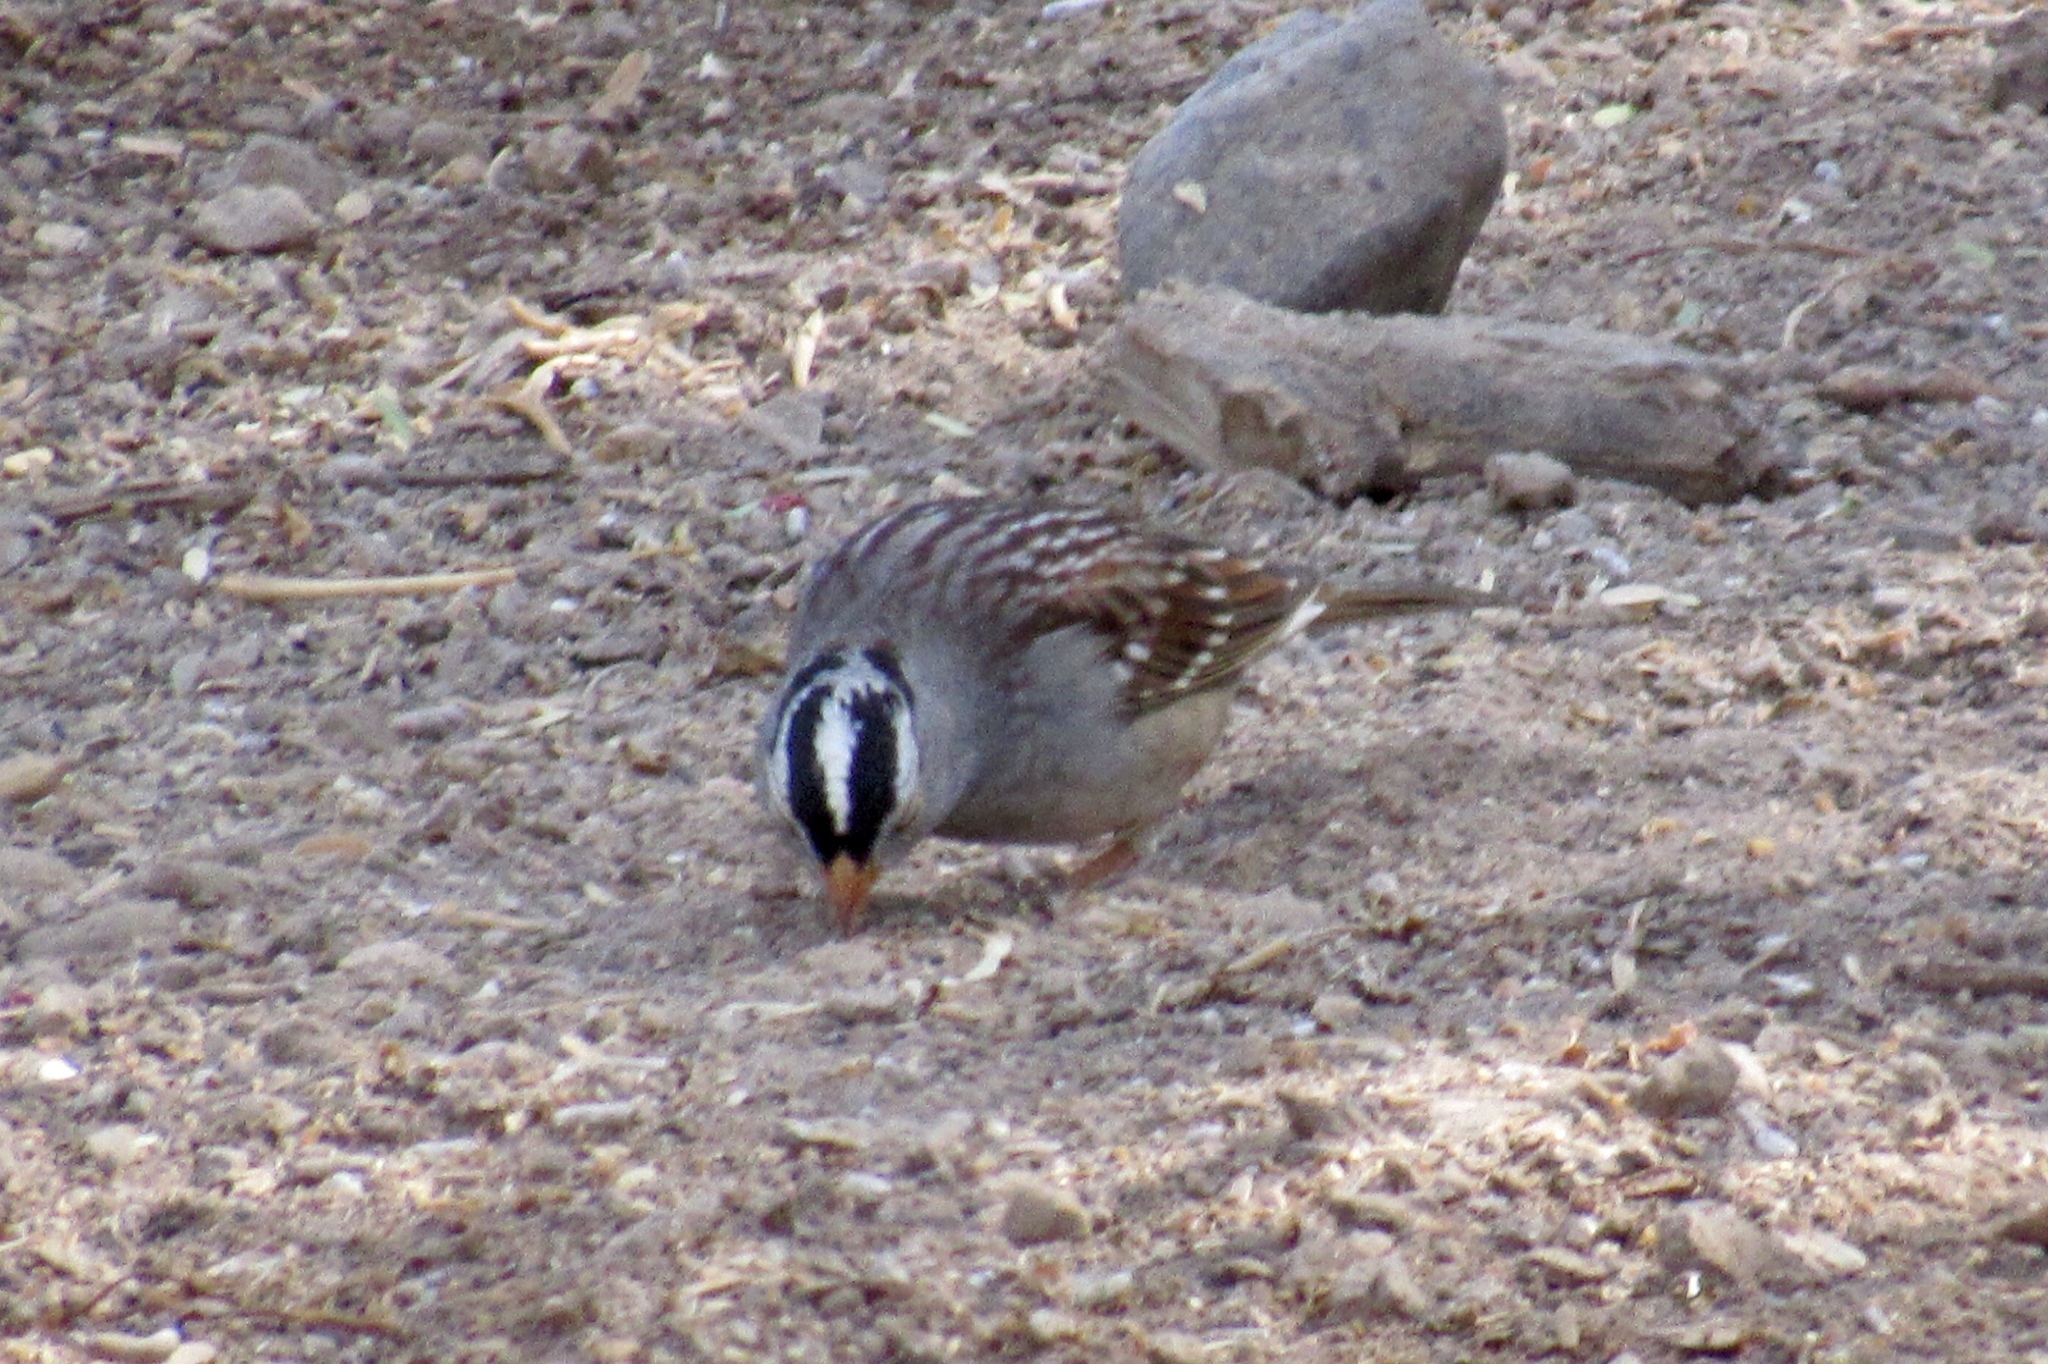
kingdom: Animalia
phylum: Chordata
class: Aves
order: Passeriformes
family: Passerellidae
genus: Zonotrichia
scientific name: Zonotrichia leucophrys
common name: White-crowned sparrow
